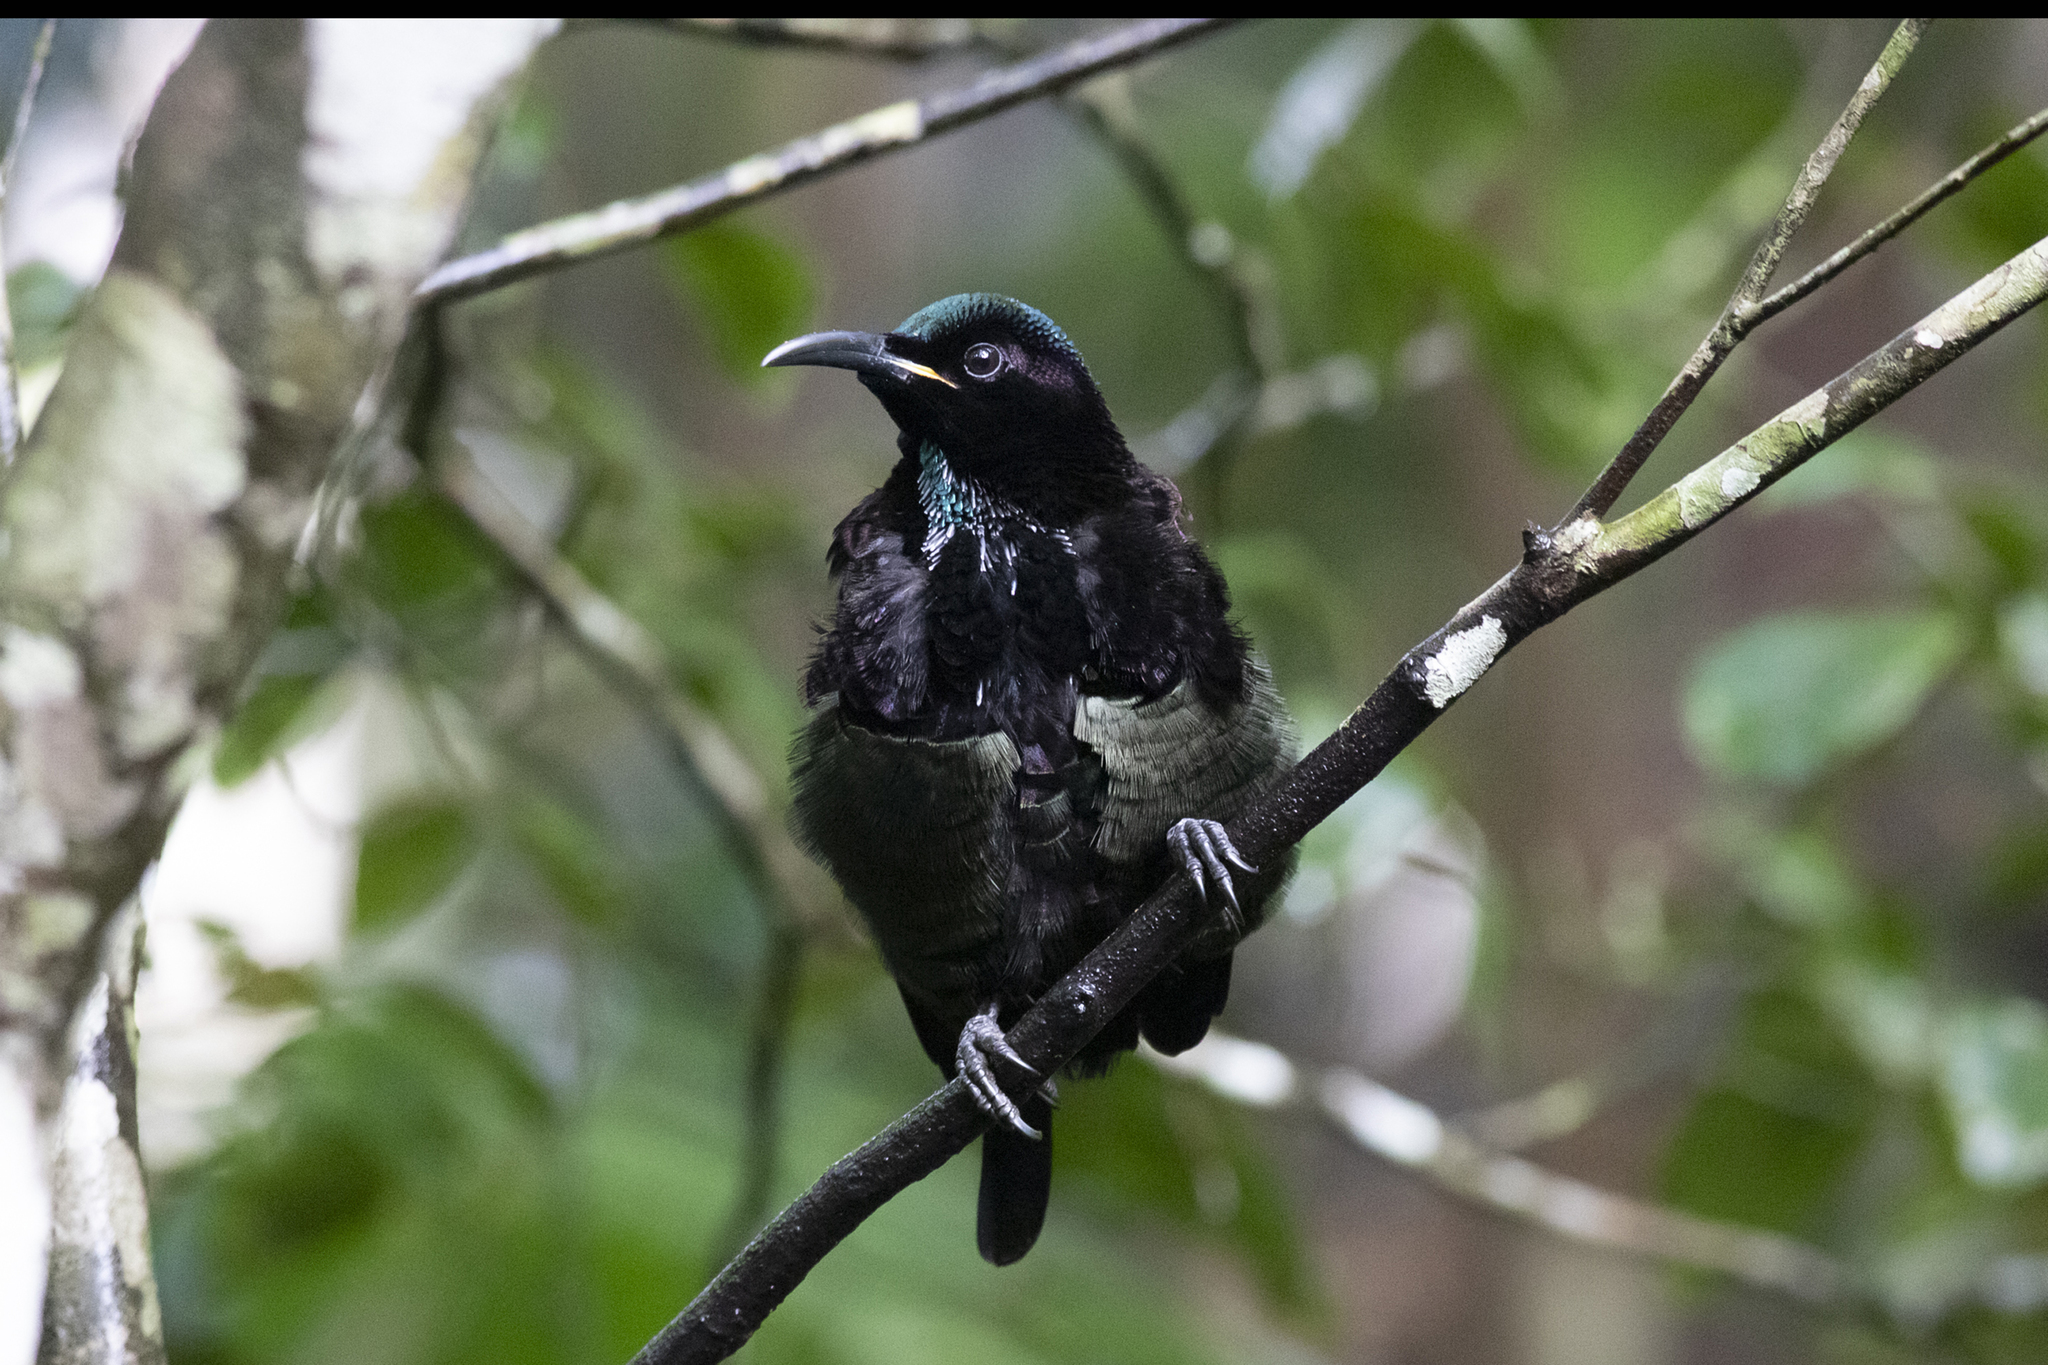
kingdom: Animalia
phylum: Chordata
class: Aves
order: Passeriformes
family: Paradisaeidae
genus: Ptiloris
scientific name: Ptiloris victoriae
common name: Victoria's riflebird
